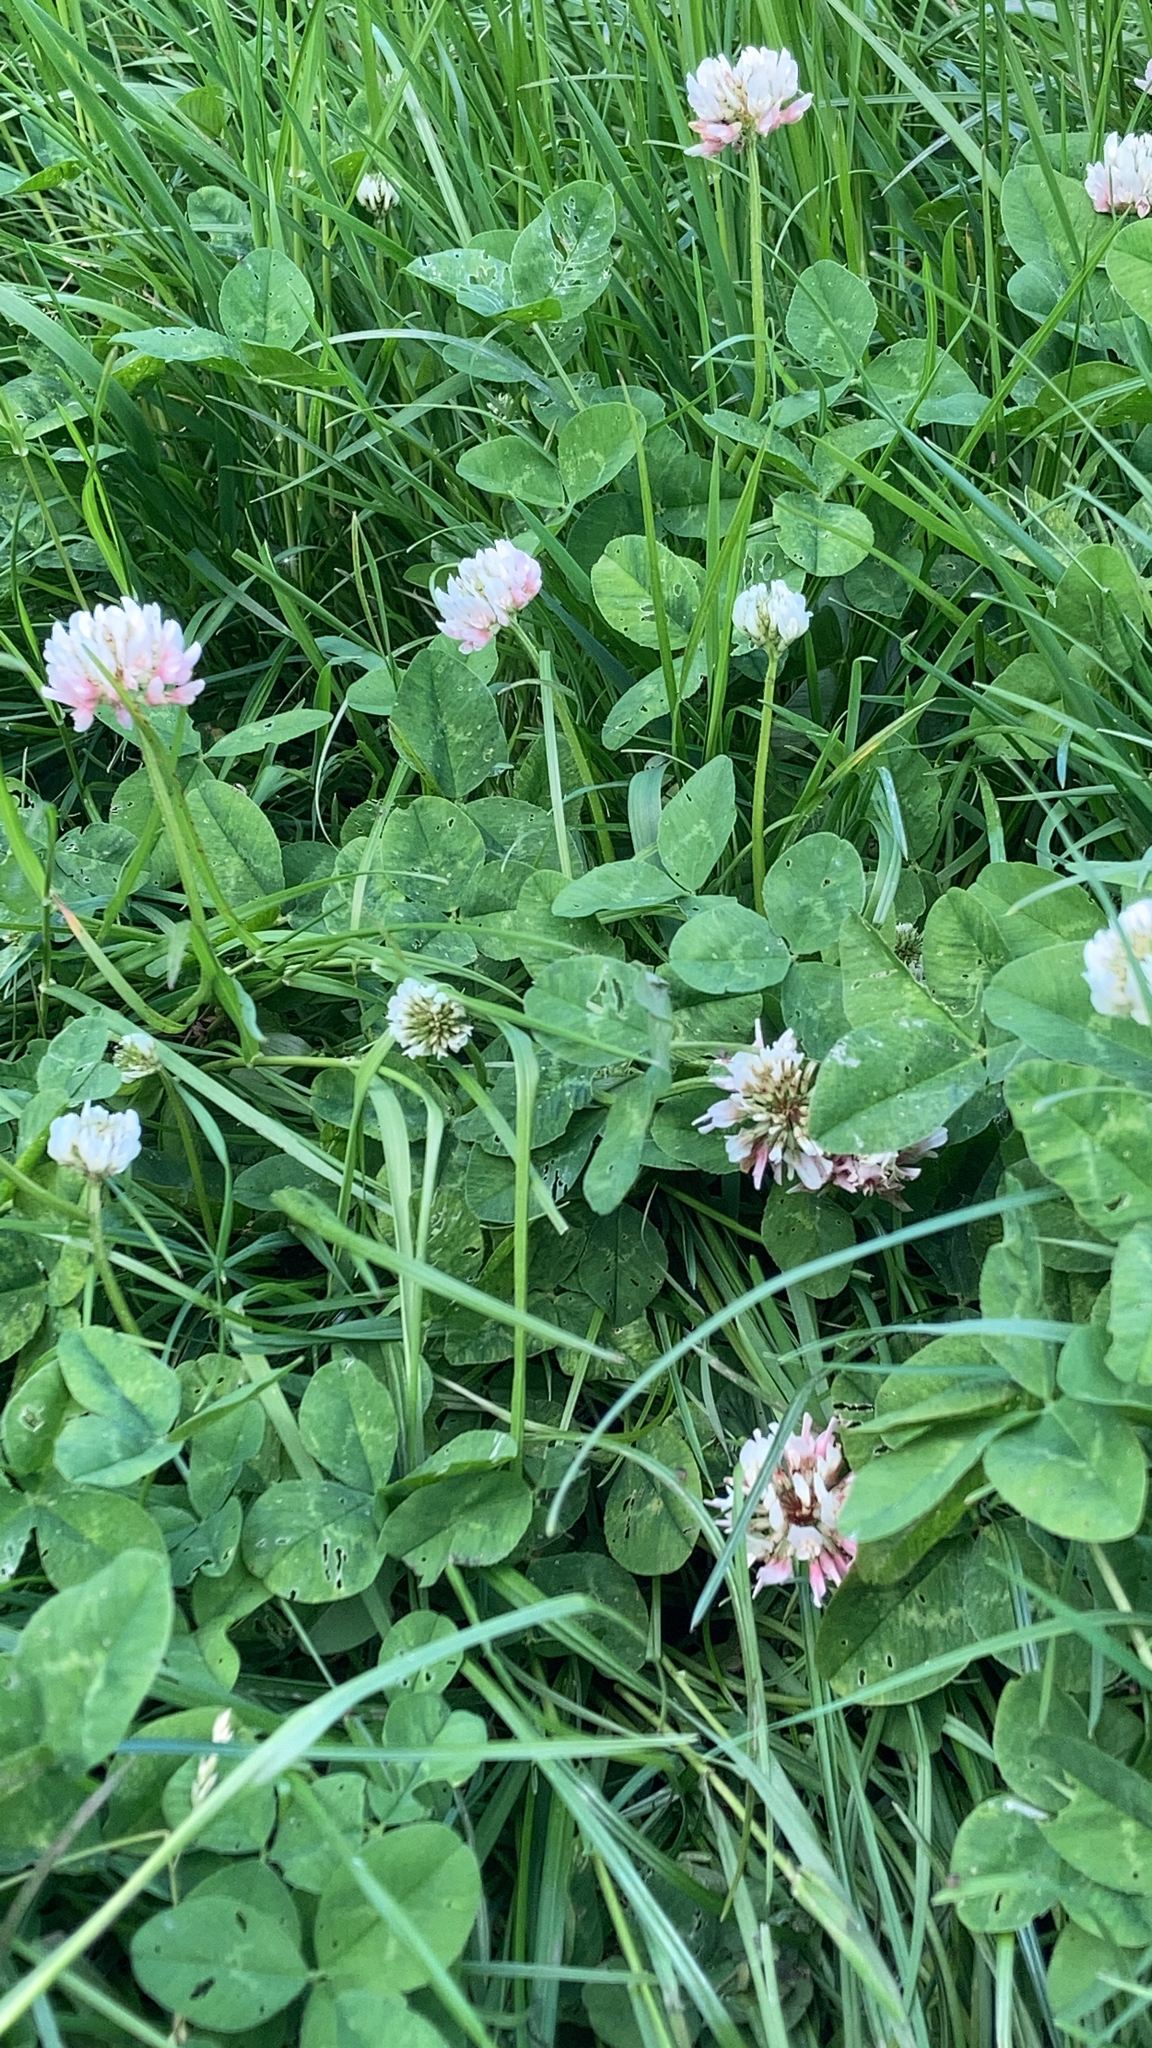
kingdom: Plantae
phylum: Tracheophyta
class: Magnoliopsida
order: Fabales
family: Fabaceae
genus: Trifolium
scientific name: Trifolium repens
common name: White clover
